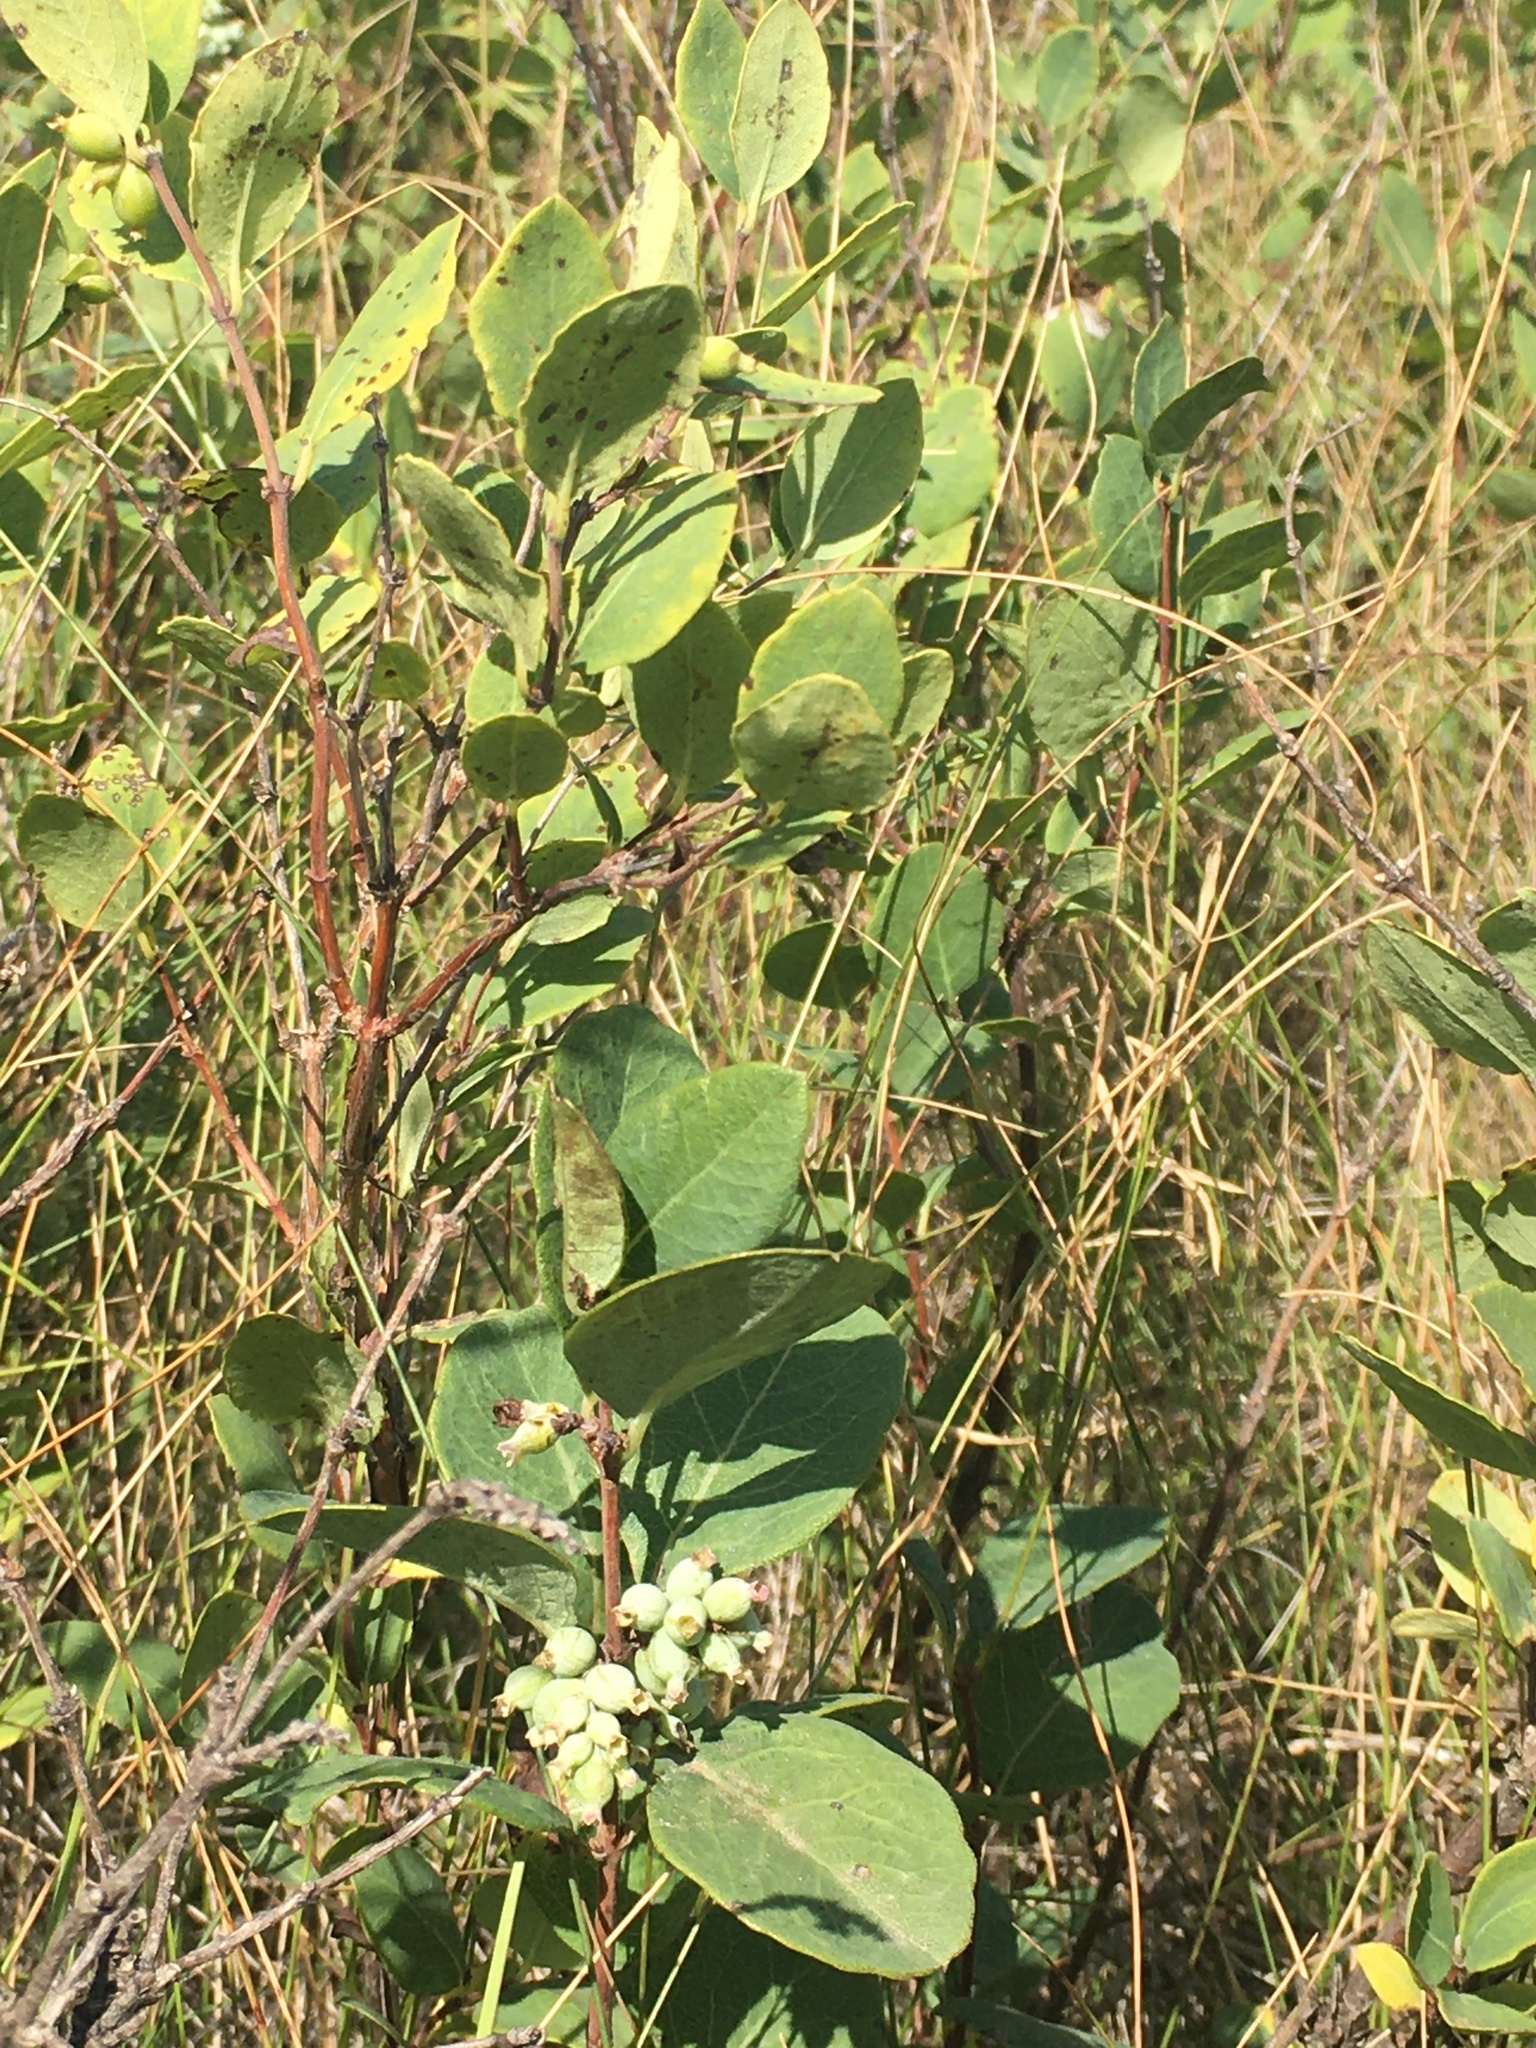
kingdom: Plantae
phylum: Tracheophyta
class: Magnoliopsida
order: Dipsacales
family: Caprifoliaceae
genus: Symphoricarpos
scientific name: Symphoricarpos occidentalis
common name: Wolfberry
